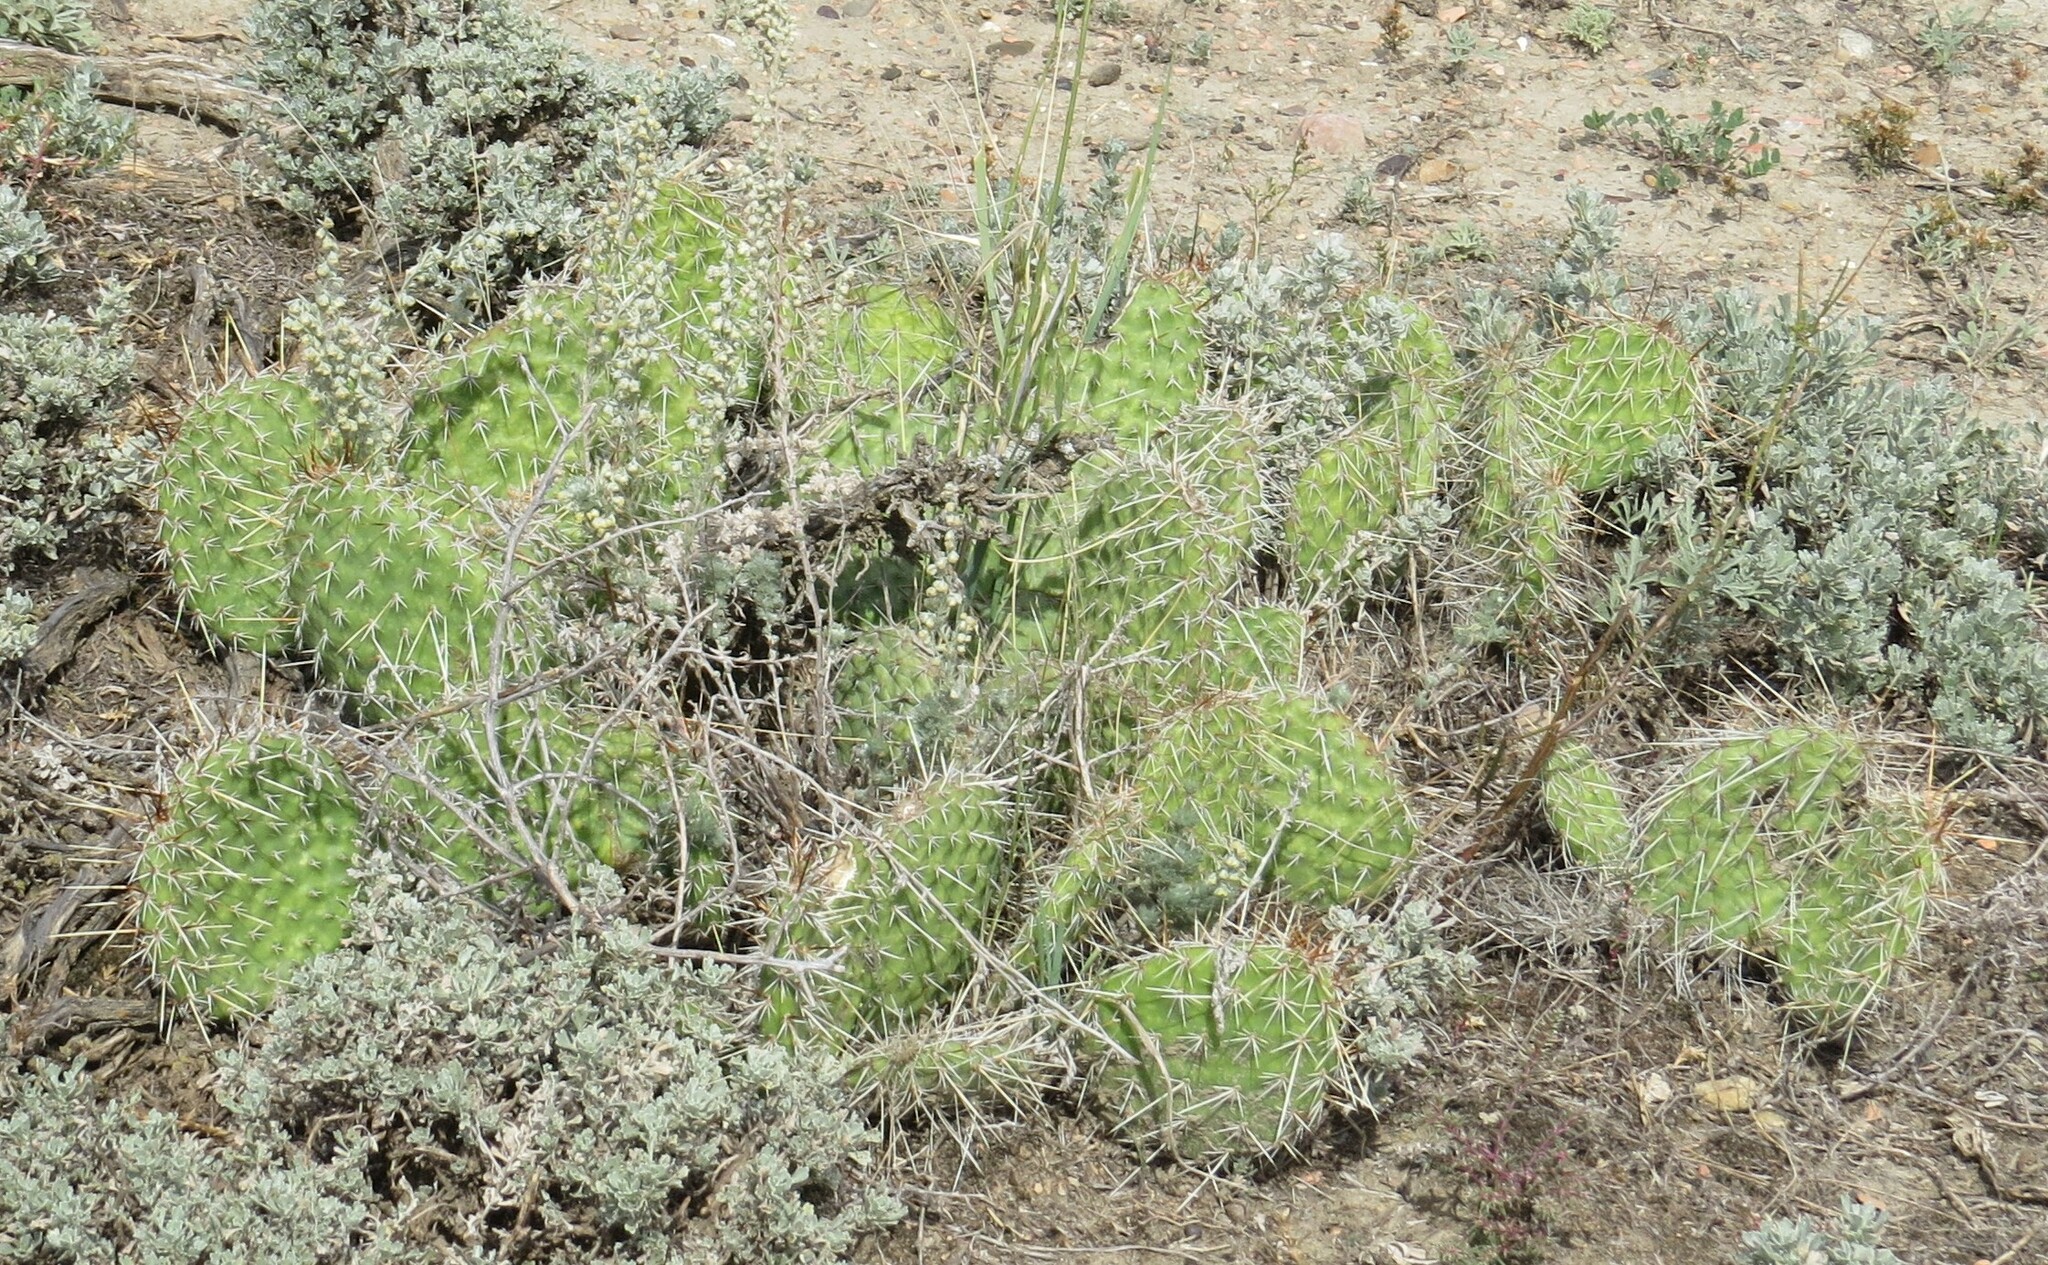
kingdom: Plantae
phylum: Tracheophyta
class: Magnoliopsida
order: Caryophyllales
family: Cactaceae
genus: Opuntia
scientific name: Opuntia polyacantha
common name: Plains prickly-pear
